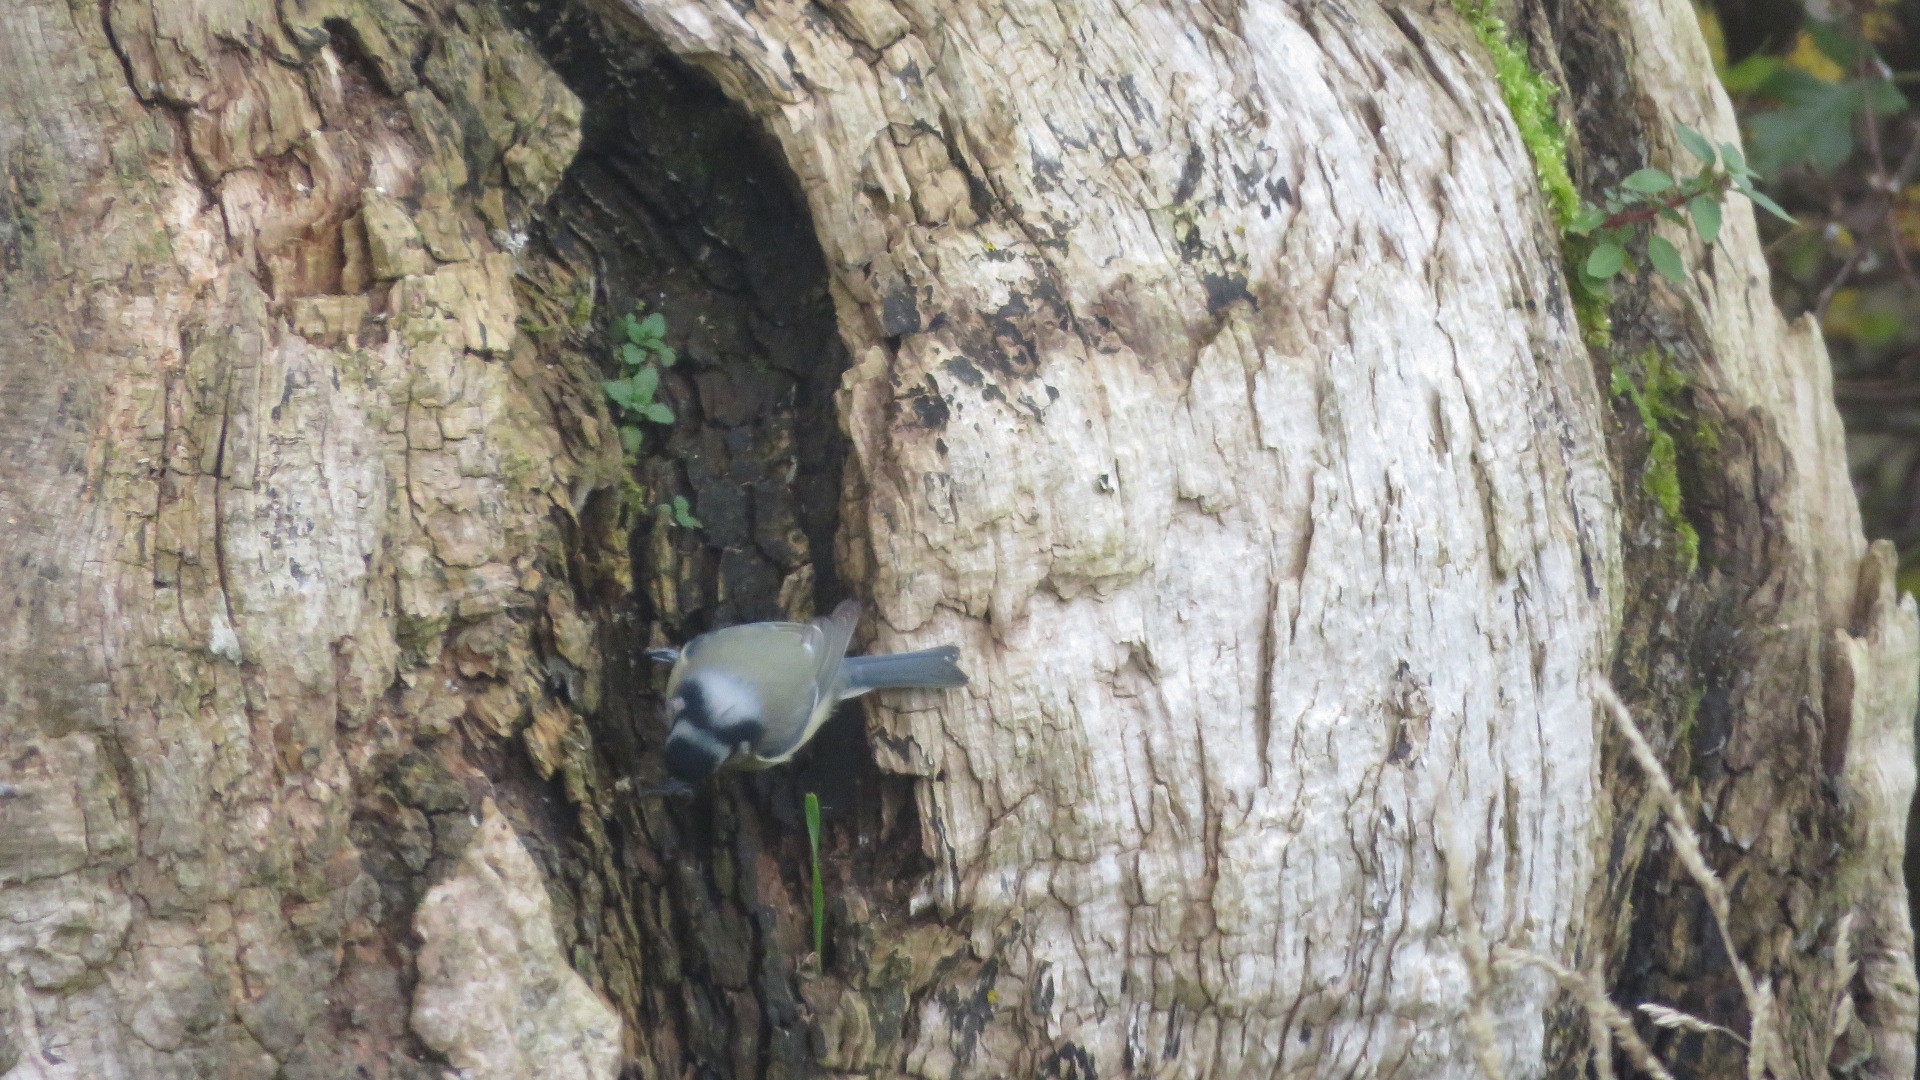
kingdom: Animalia
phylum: Chordata
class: Aves
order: Passeriformes
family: Paridae
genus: Parus
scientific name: Parus major
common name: Great tit
